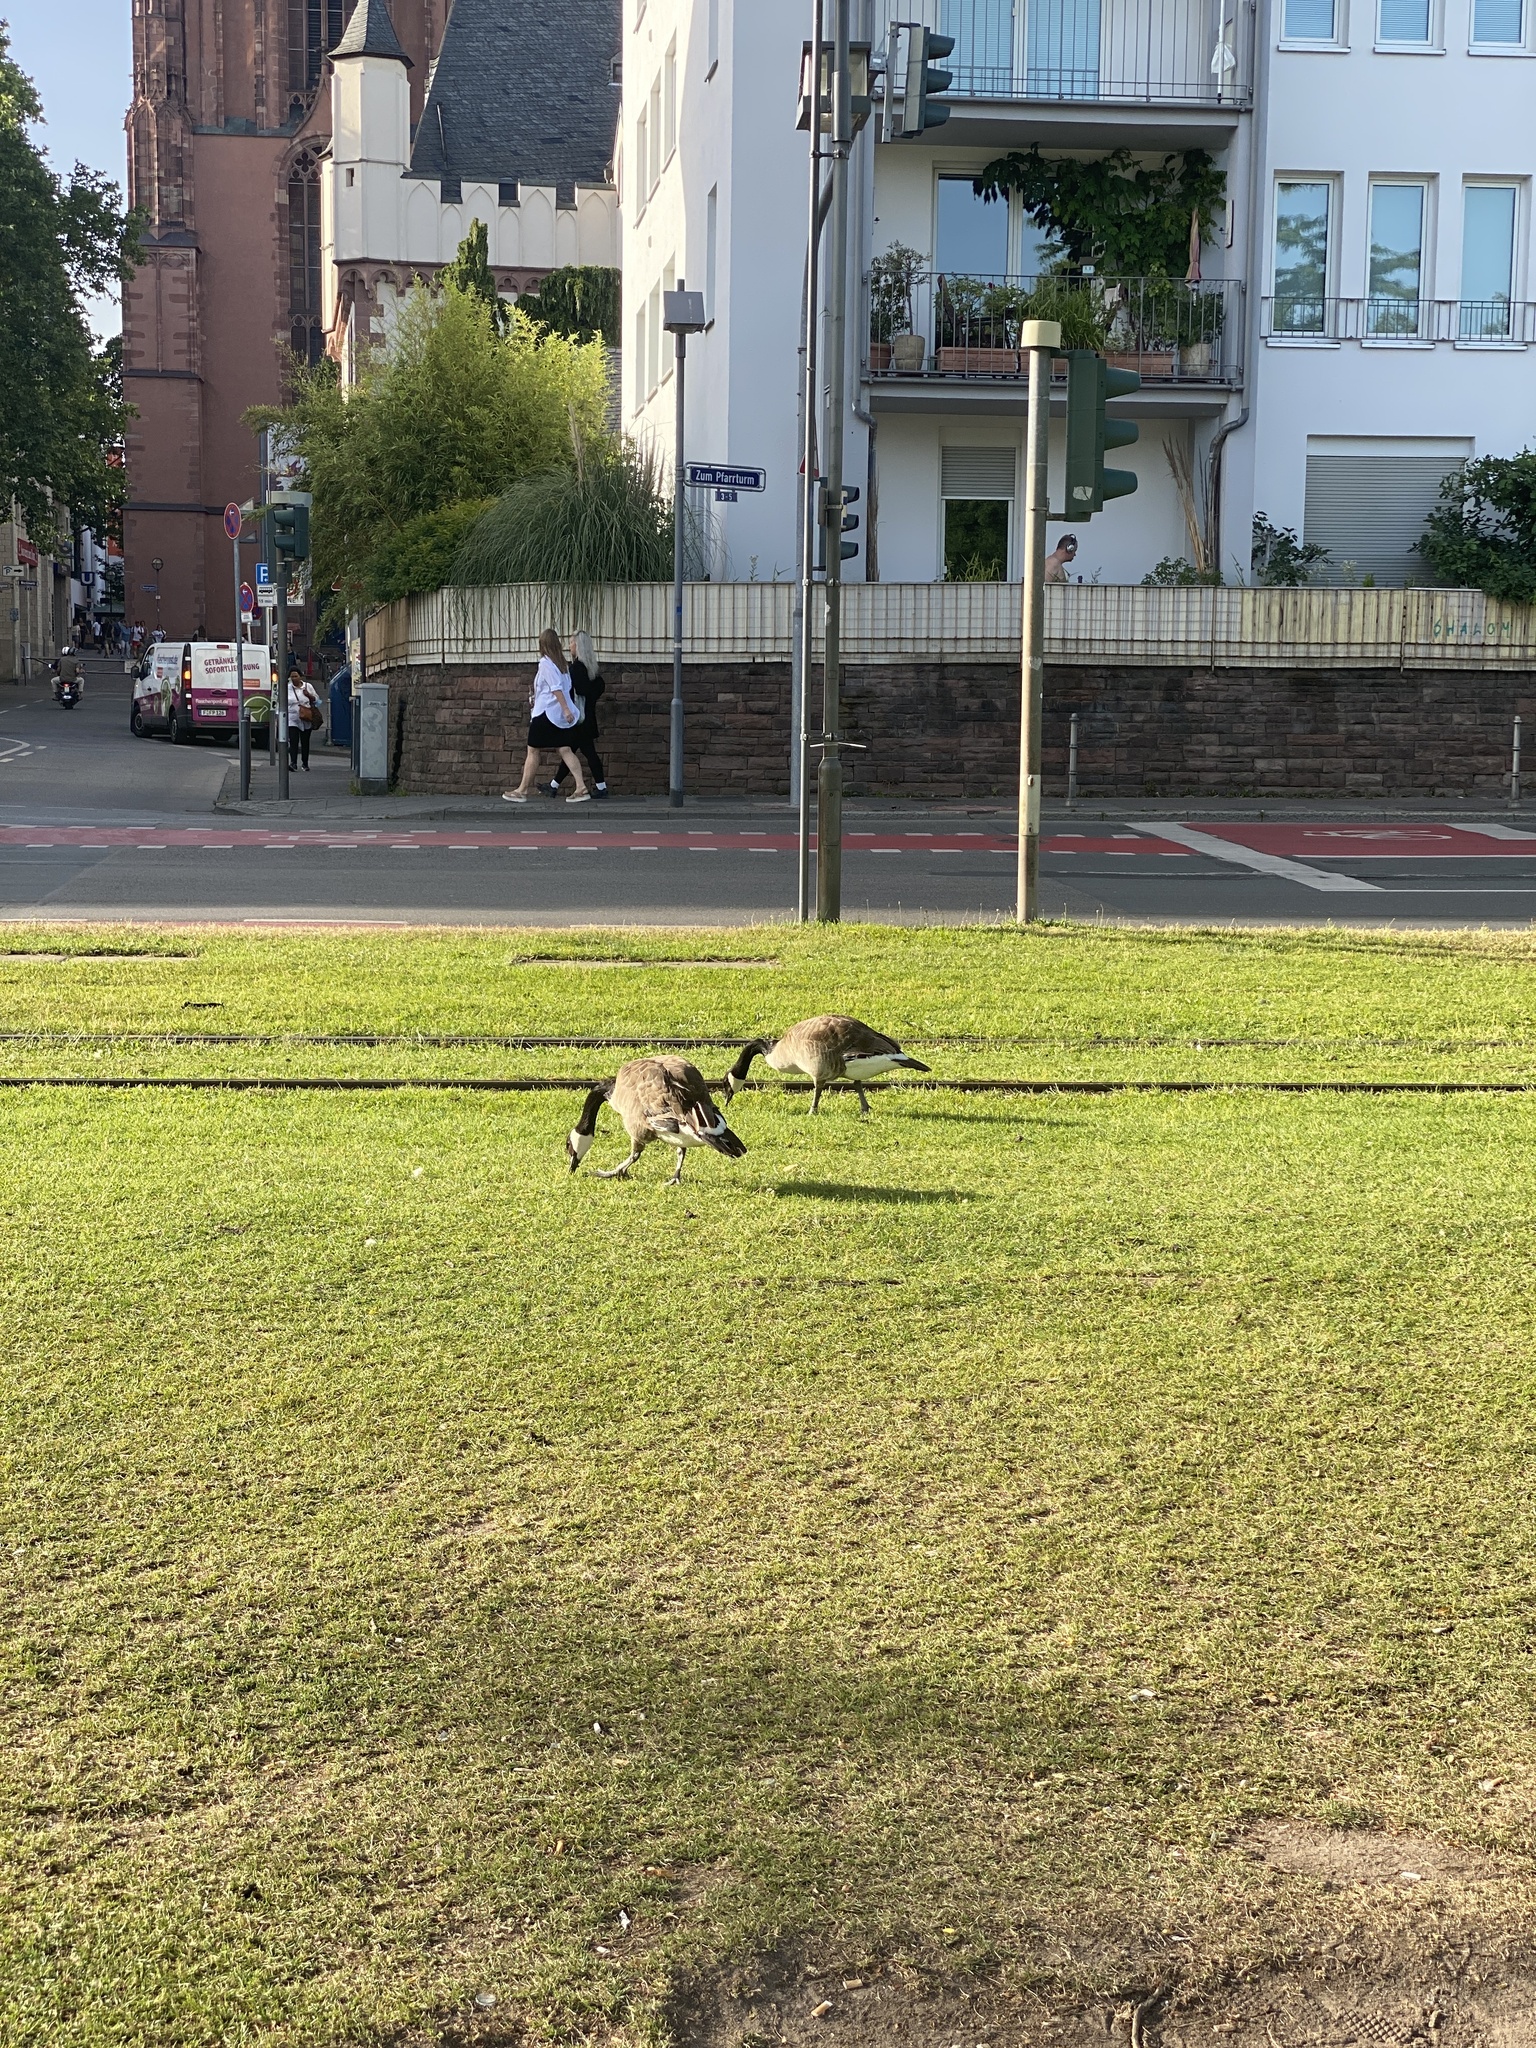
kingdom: Animalia
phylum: Chordata
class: Aves
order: Anseriformes
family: Anatidae
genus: Branta
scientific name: Branta canadensis
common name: Canada goose
